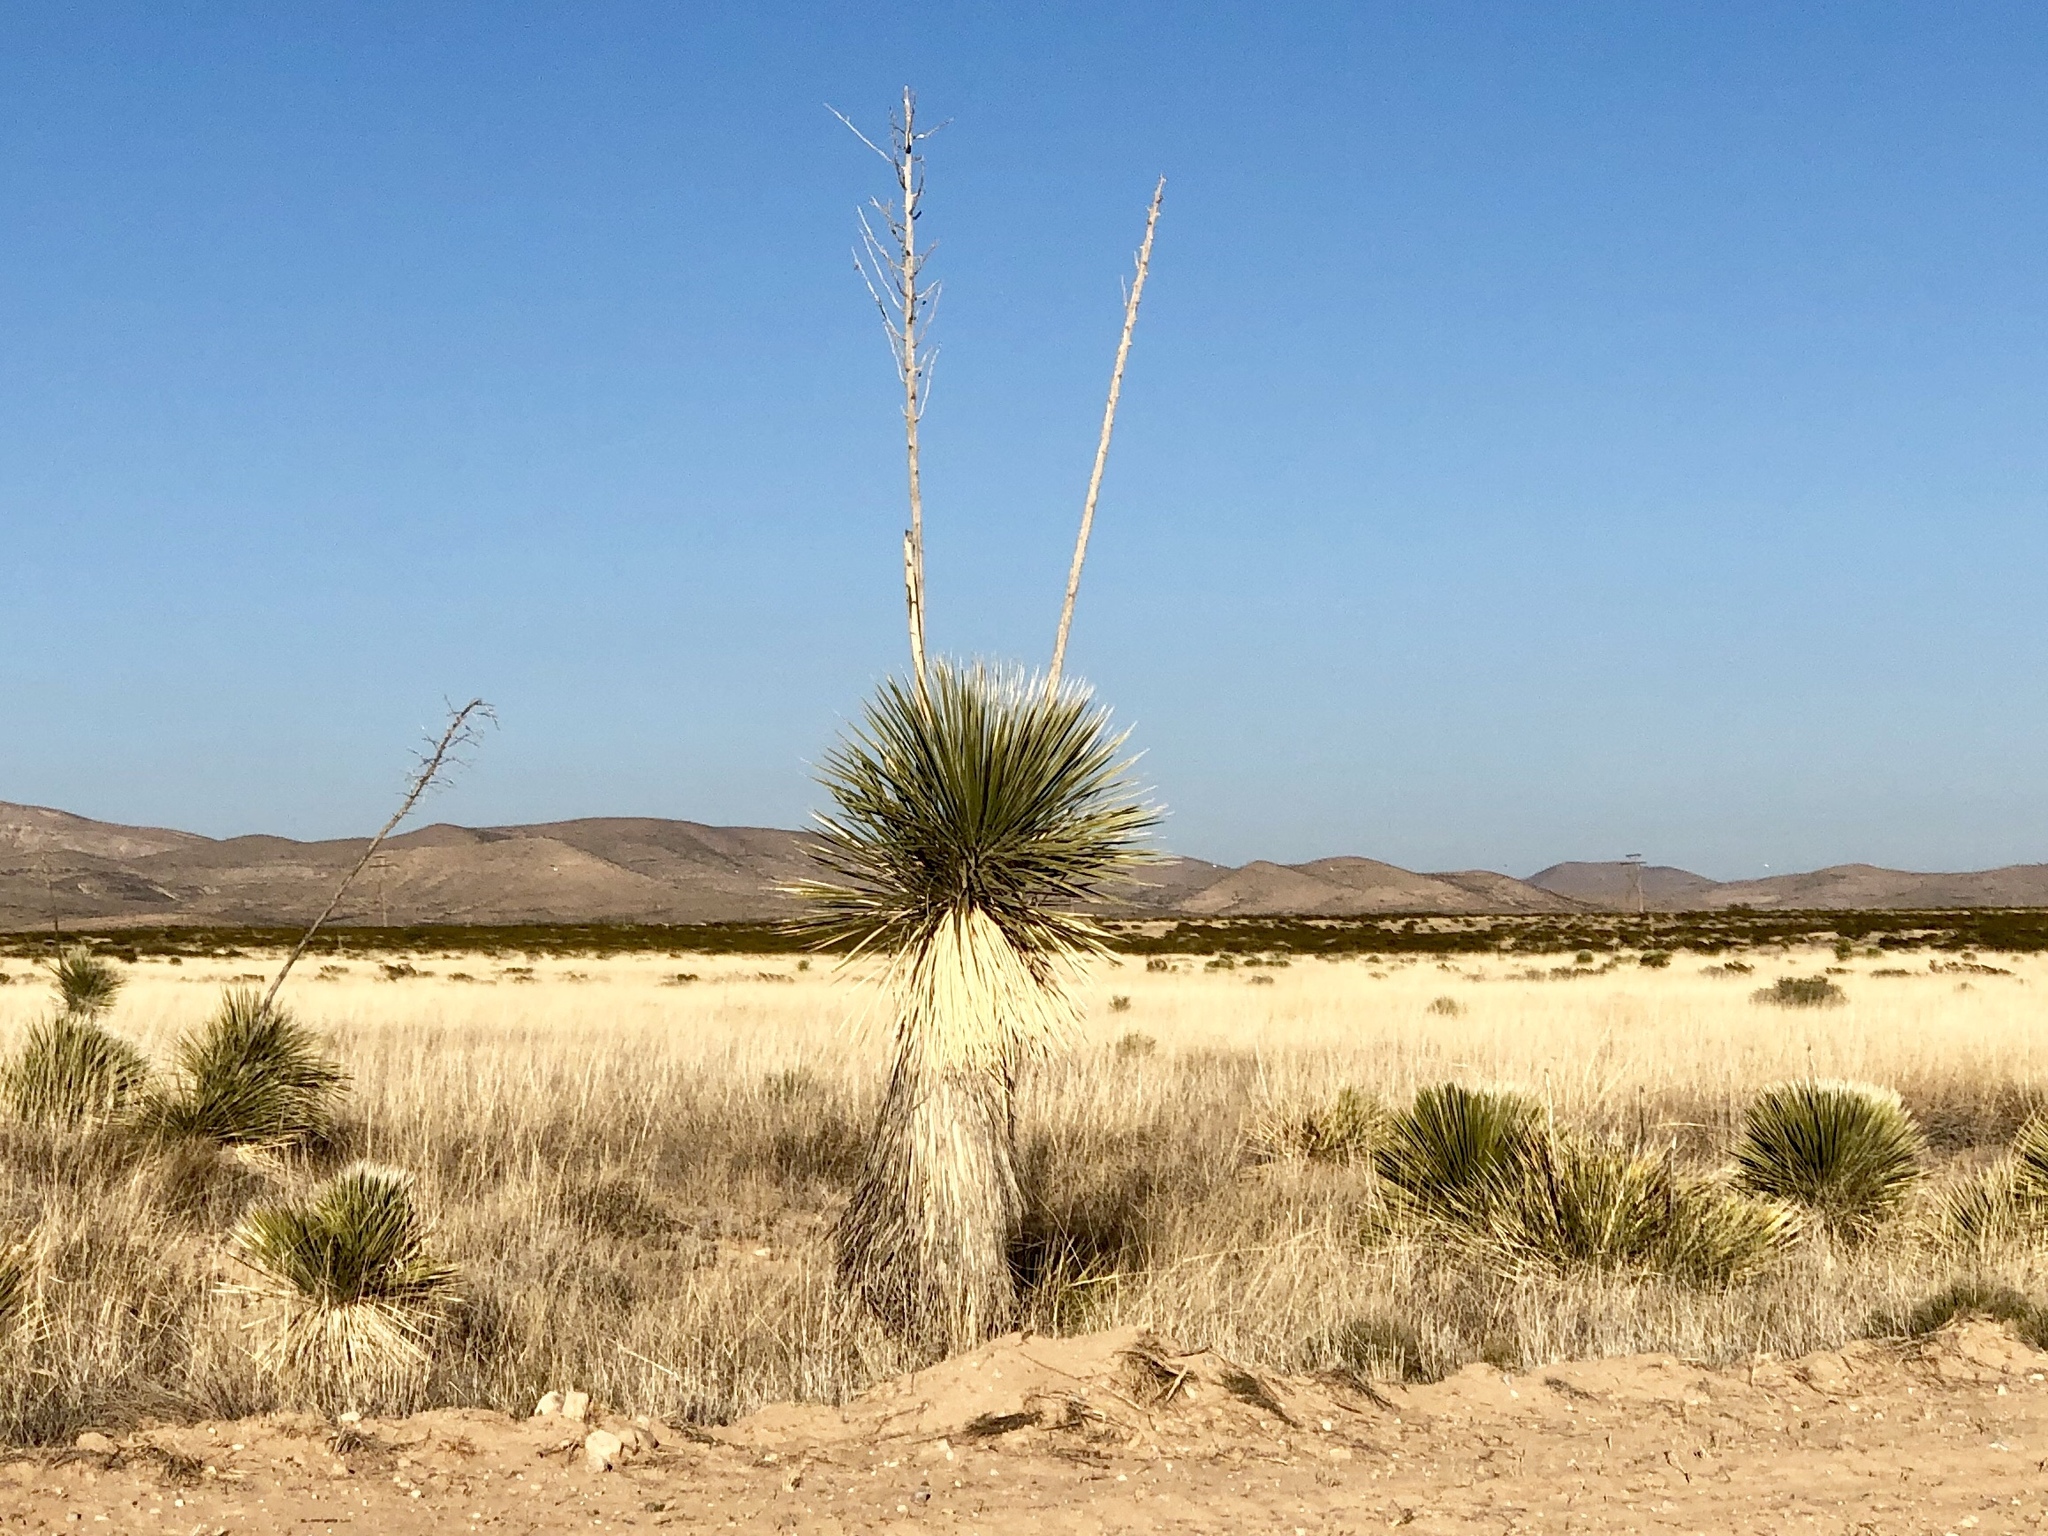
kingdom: Plantae
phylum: Tracheophyta
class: Liliopsida
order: Asparagales
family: Asparagaceae
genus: Yucca
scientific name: Yucca elata
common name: Palmella
